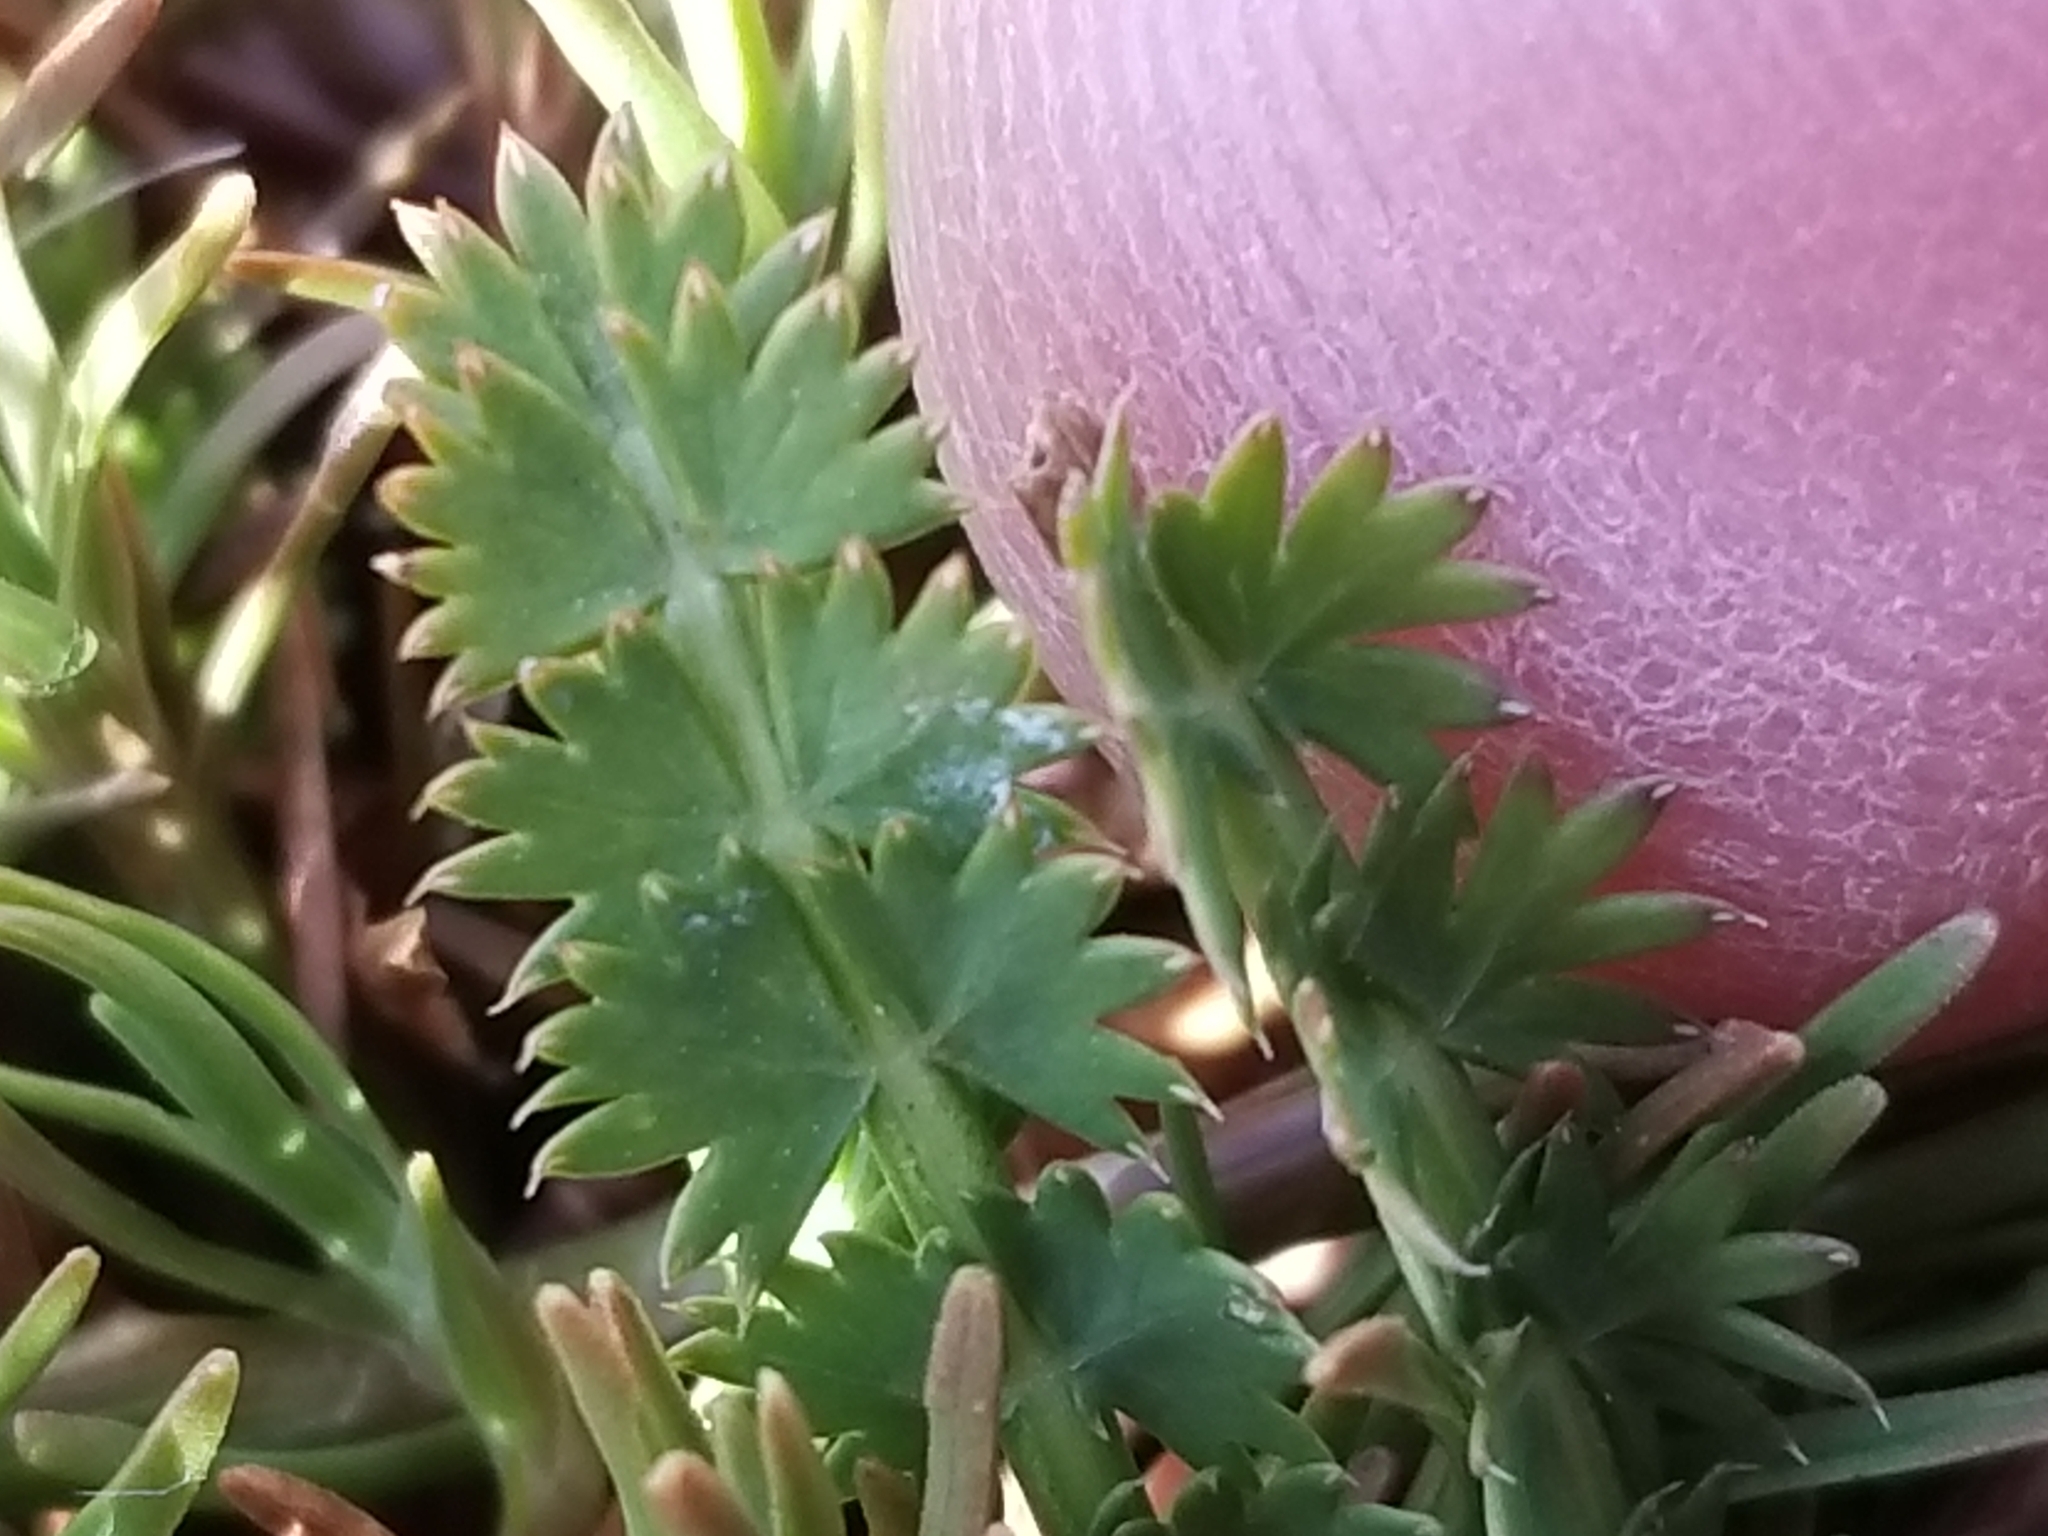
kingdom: Plantae
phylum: Tracheophyta
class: Magnoliopsida
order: Apiales
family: Apiaceae
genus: Anisotome
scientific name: Anisotome aromatica
